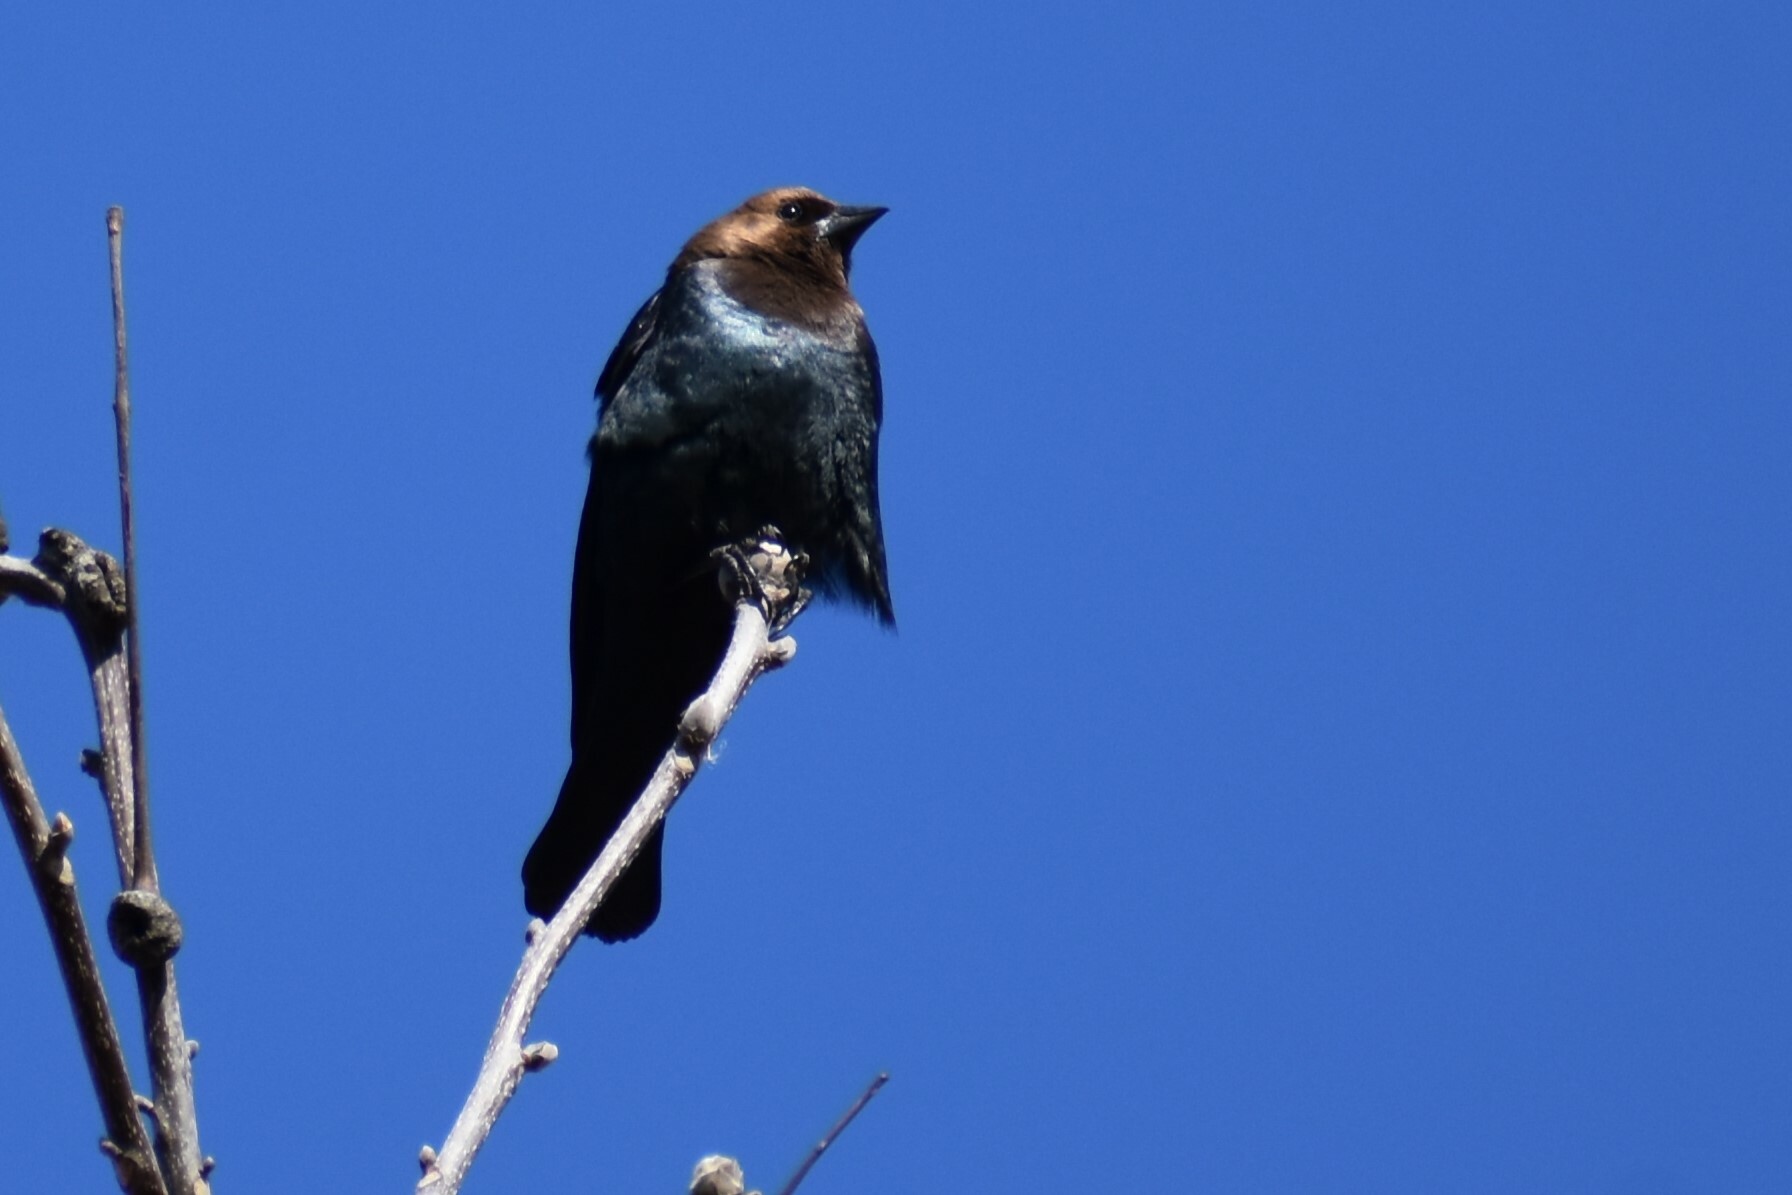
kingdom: Animalia
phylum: Chordata
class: Aves
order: Passeriformes
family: Icteridae
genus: Molothrus
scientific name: Molothrus ater
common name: Brown-headed cowbird
